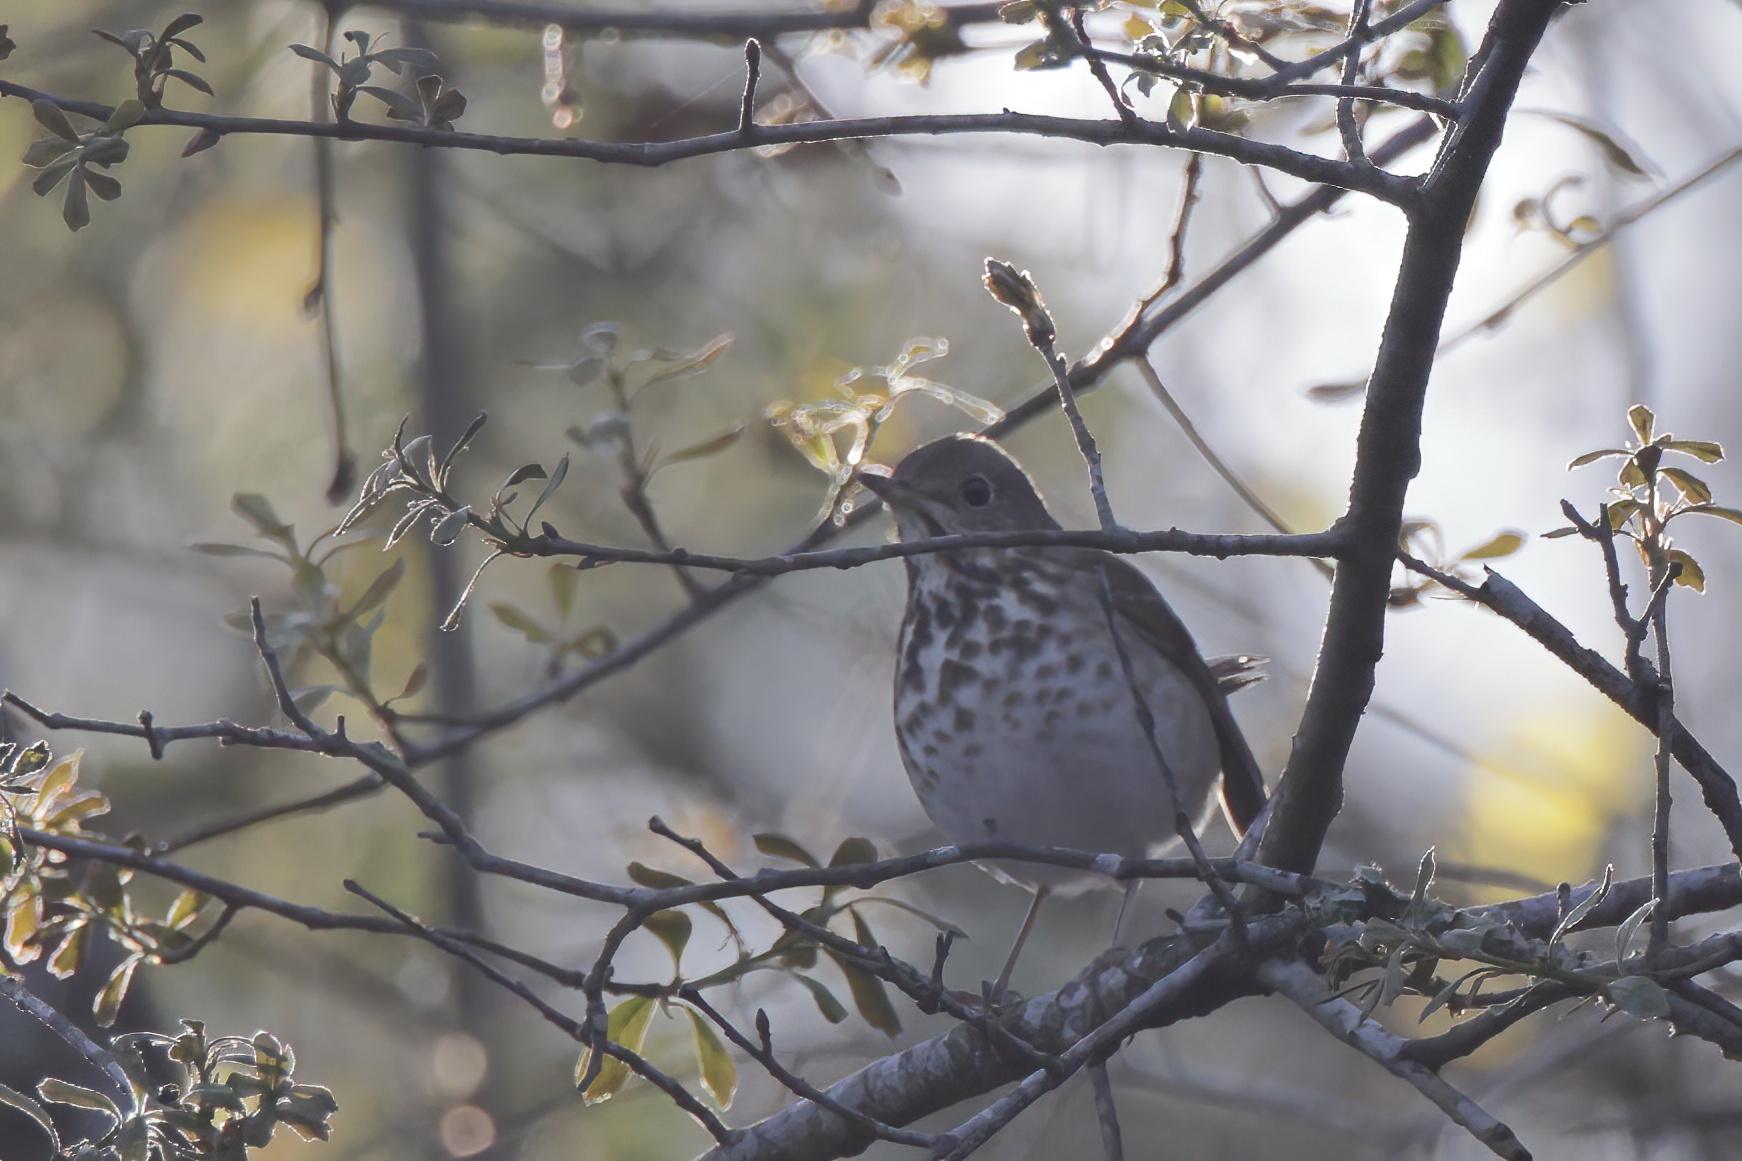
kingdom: Animalia
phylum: Chordata
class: Aves
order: Passeriformes
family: Turdidae
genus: Catharus
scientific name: Catharus guttatus
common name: Hermit thrush
